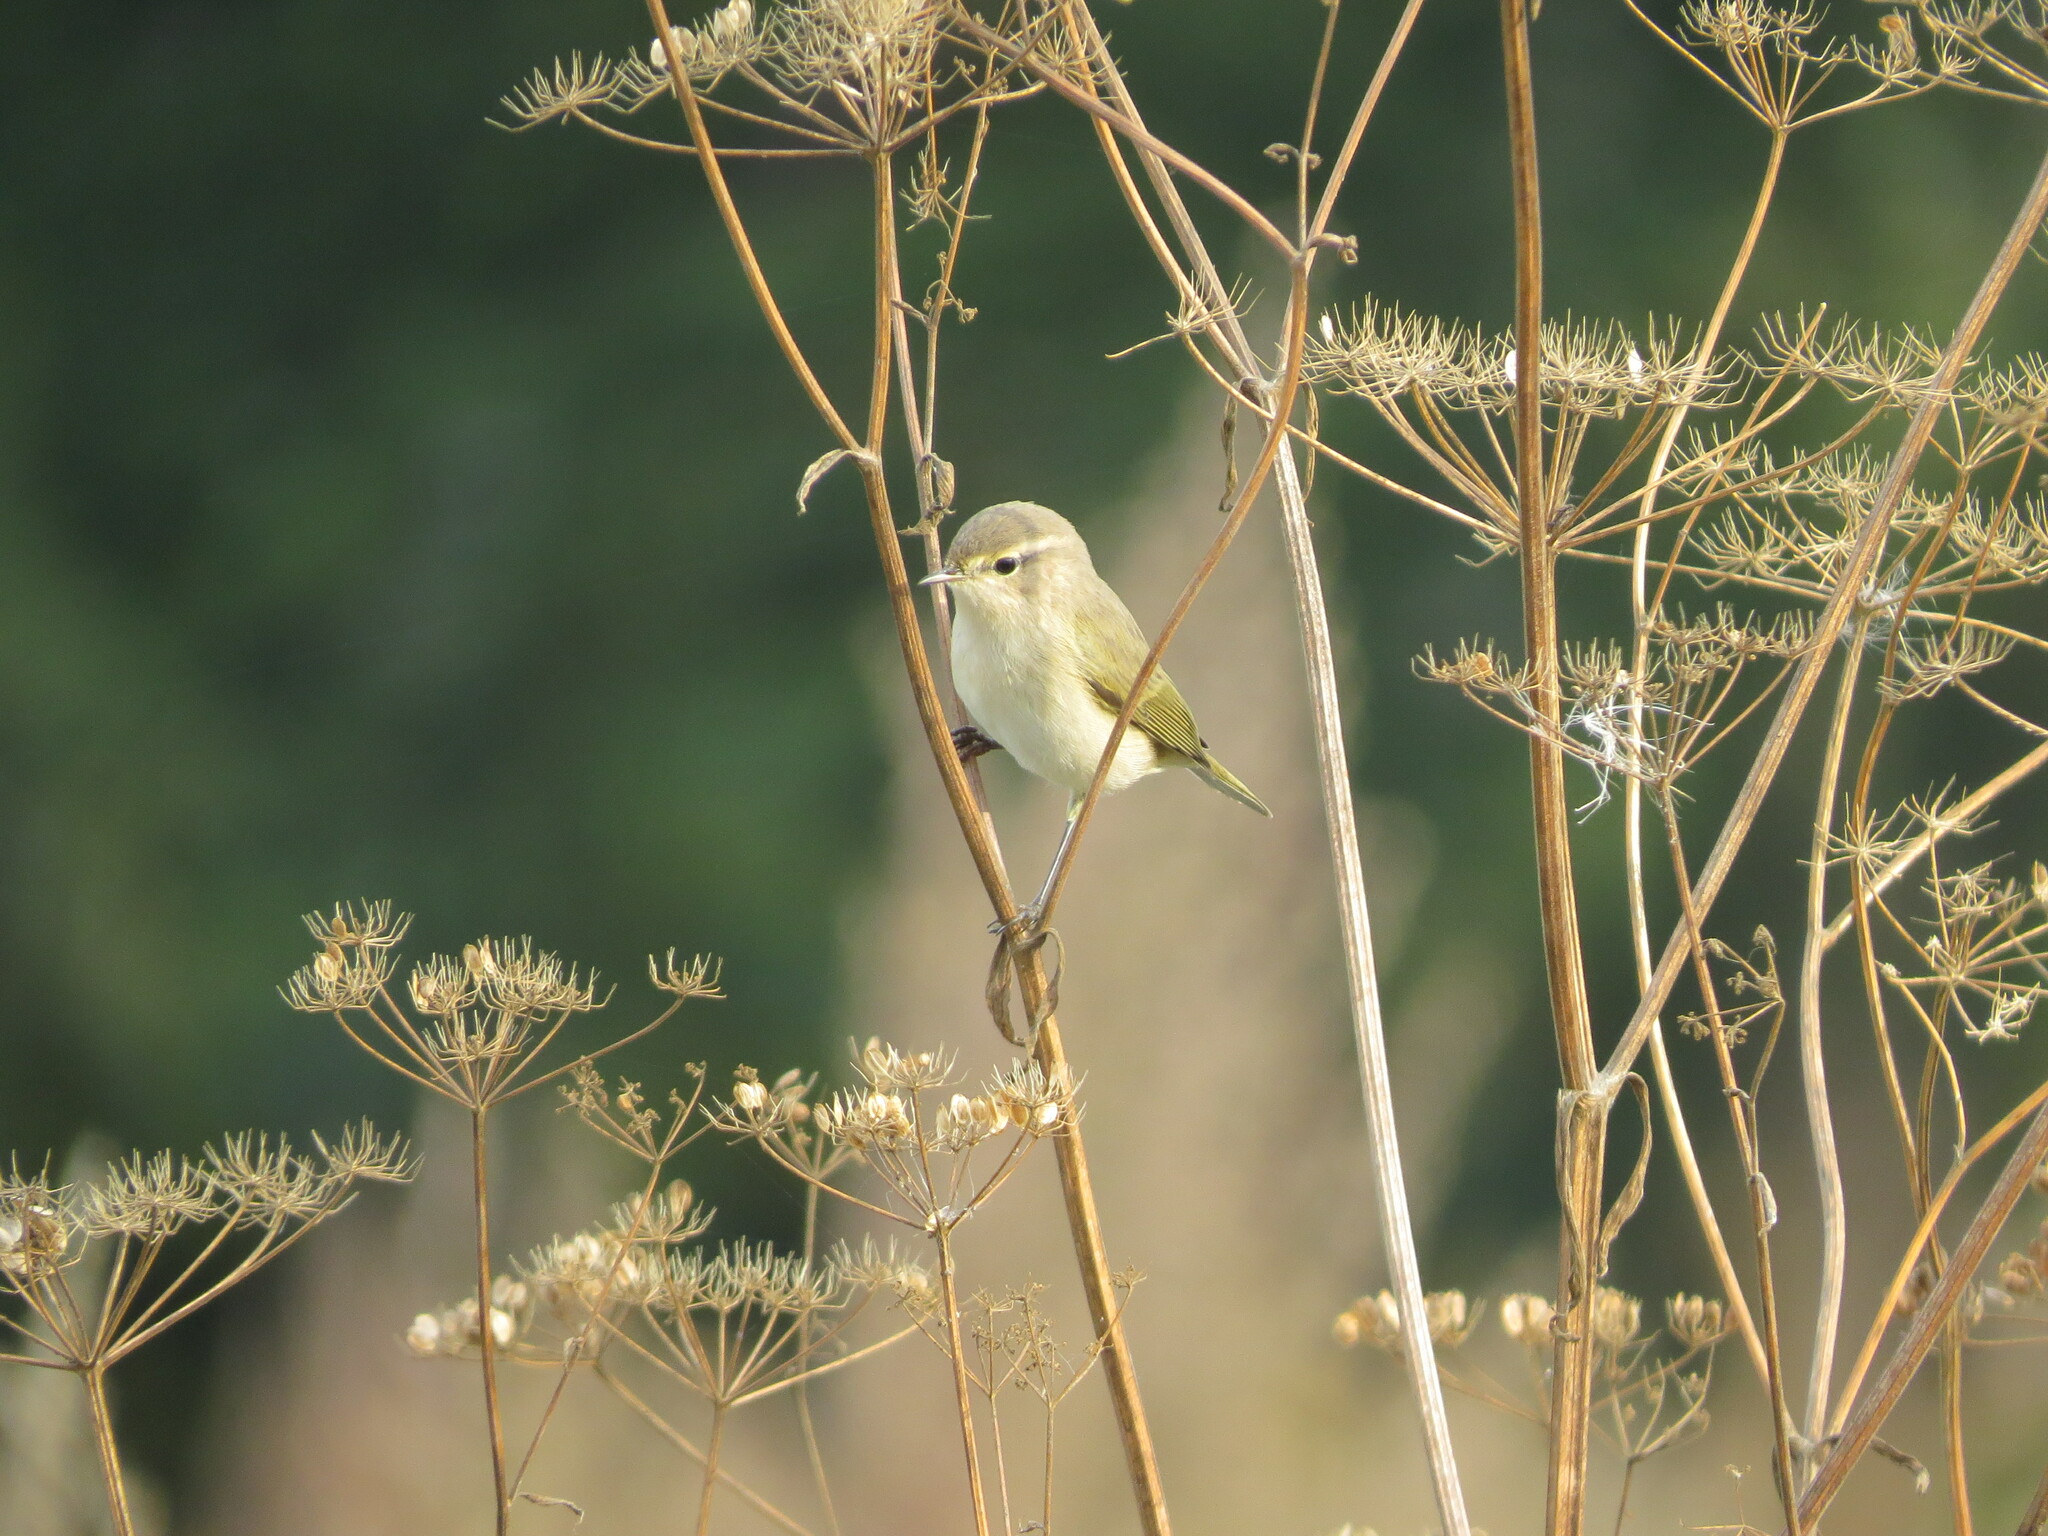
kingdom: Animalia
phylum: Chordata
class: Aves
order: Passeriformes
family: Phylloscopidae
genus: Phylloscopus
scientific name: Phylloscopus collybita
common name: Common chiffchaff
